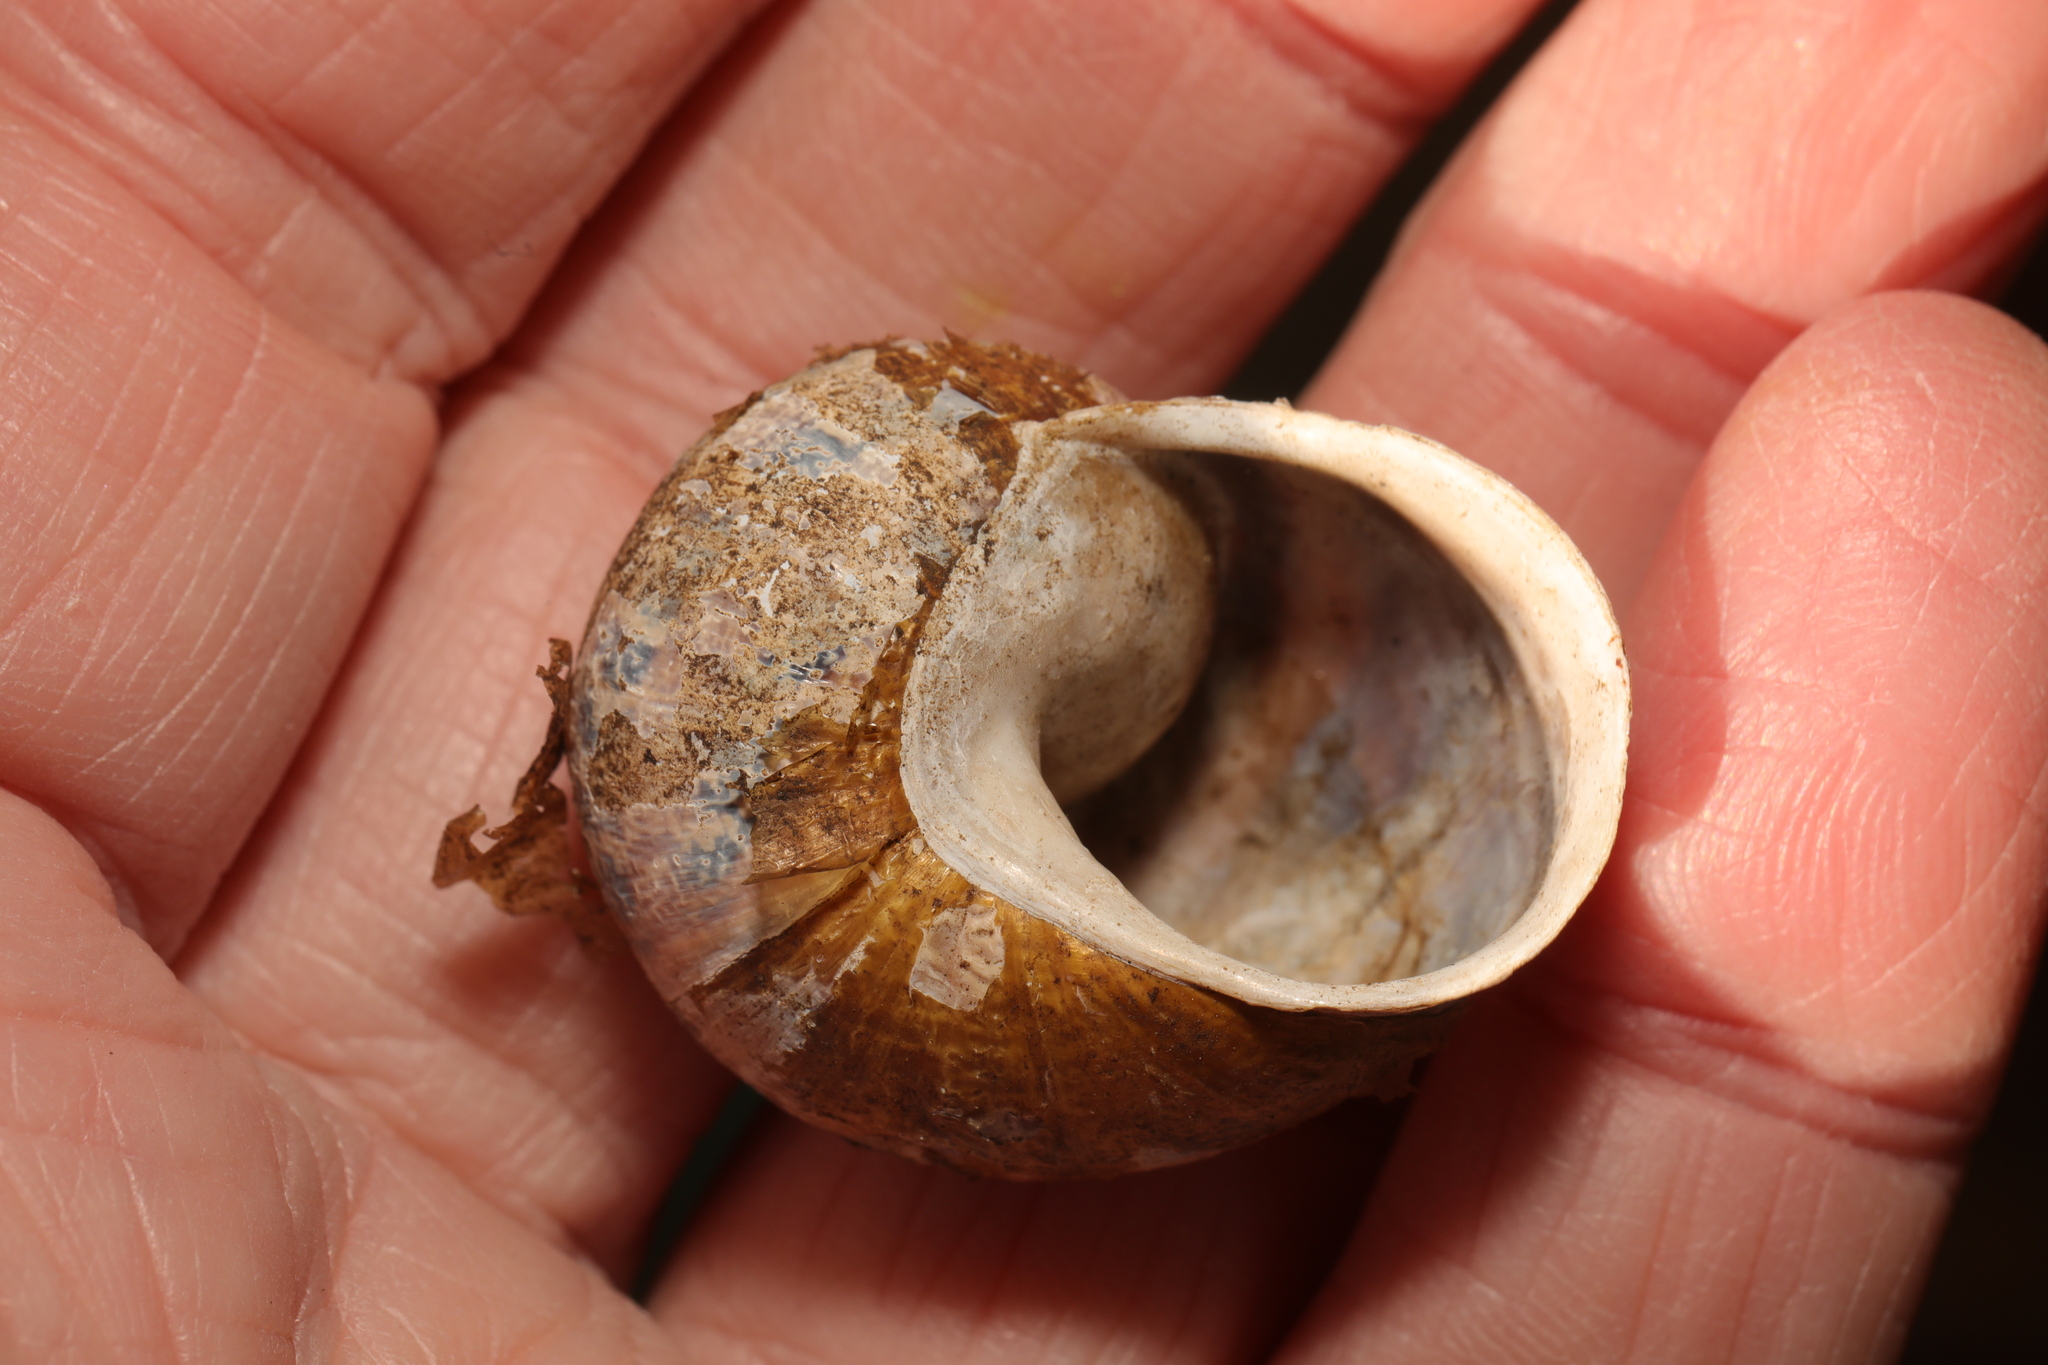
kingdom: Animalia
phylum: Mollusca
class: Gastropoda
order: Stylommatophora
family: Helicidae
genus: Cornu
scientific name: Cornu aspersum
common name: Brown garden snail
